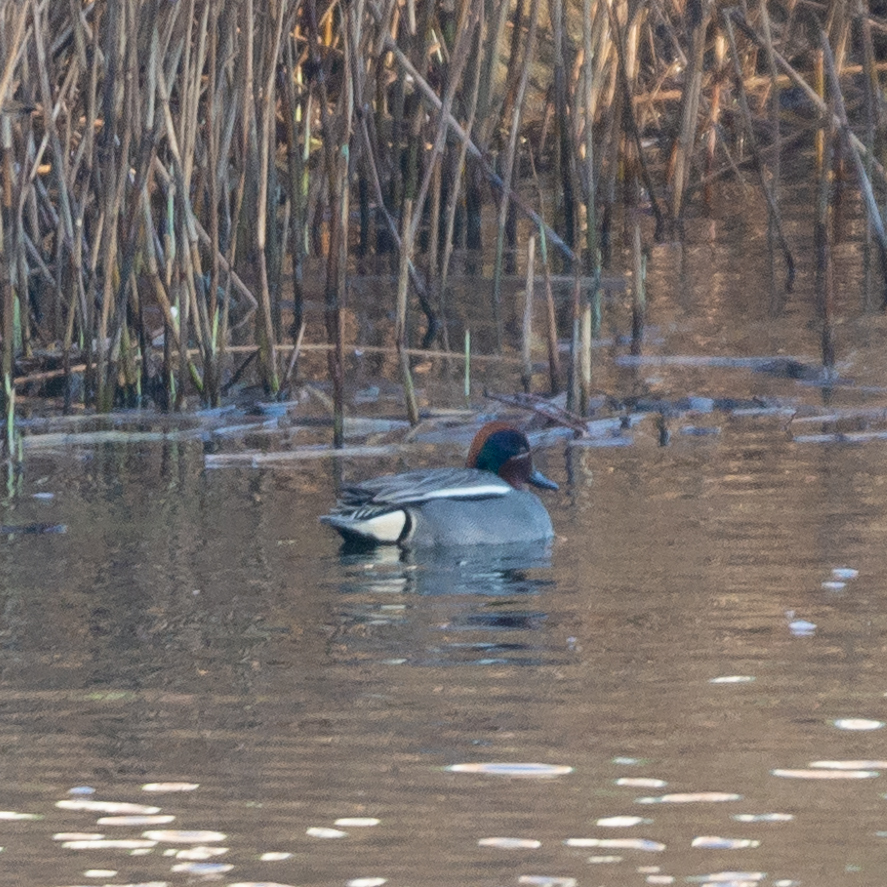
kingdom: Animalia
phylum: Chordata
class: Aves
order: Anseriformes
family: Anatidae
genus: Anas
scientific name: Anas crecca
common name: Eurasian teal
